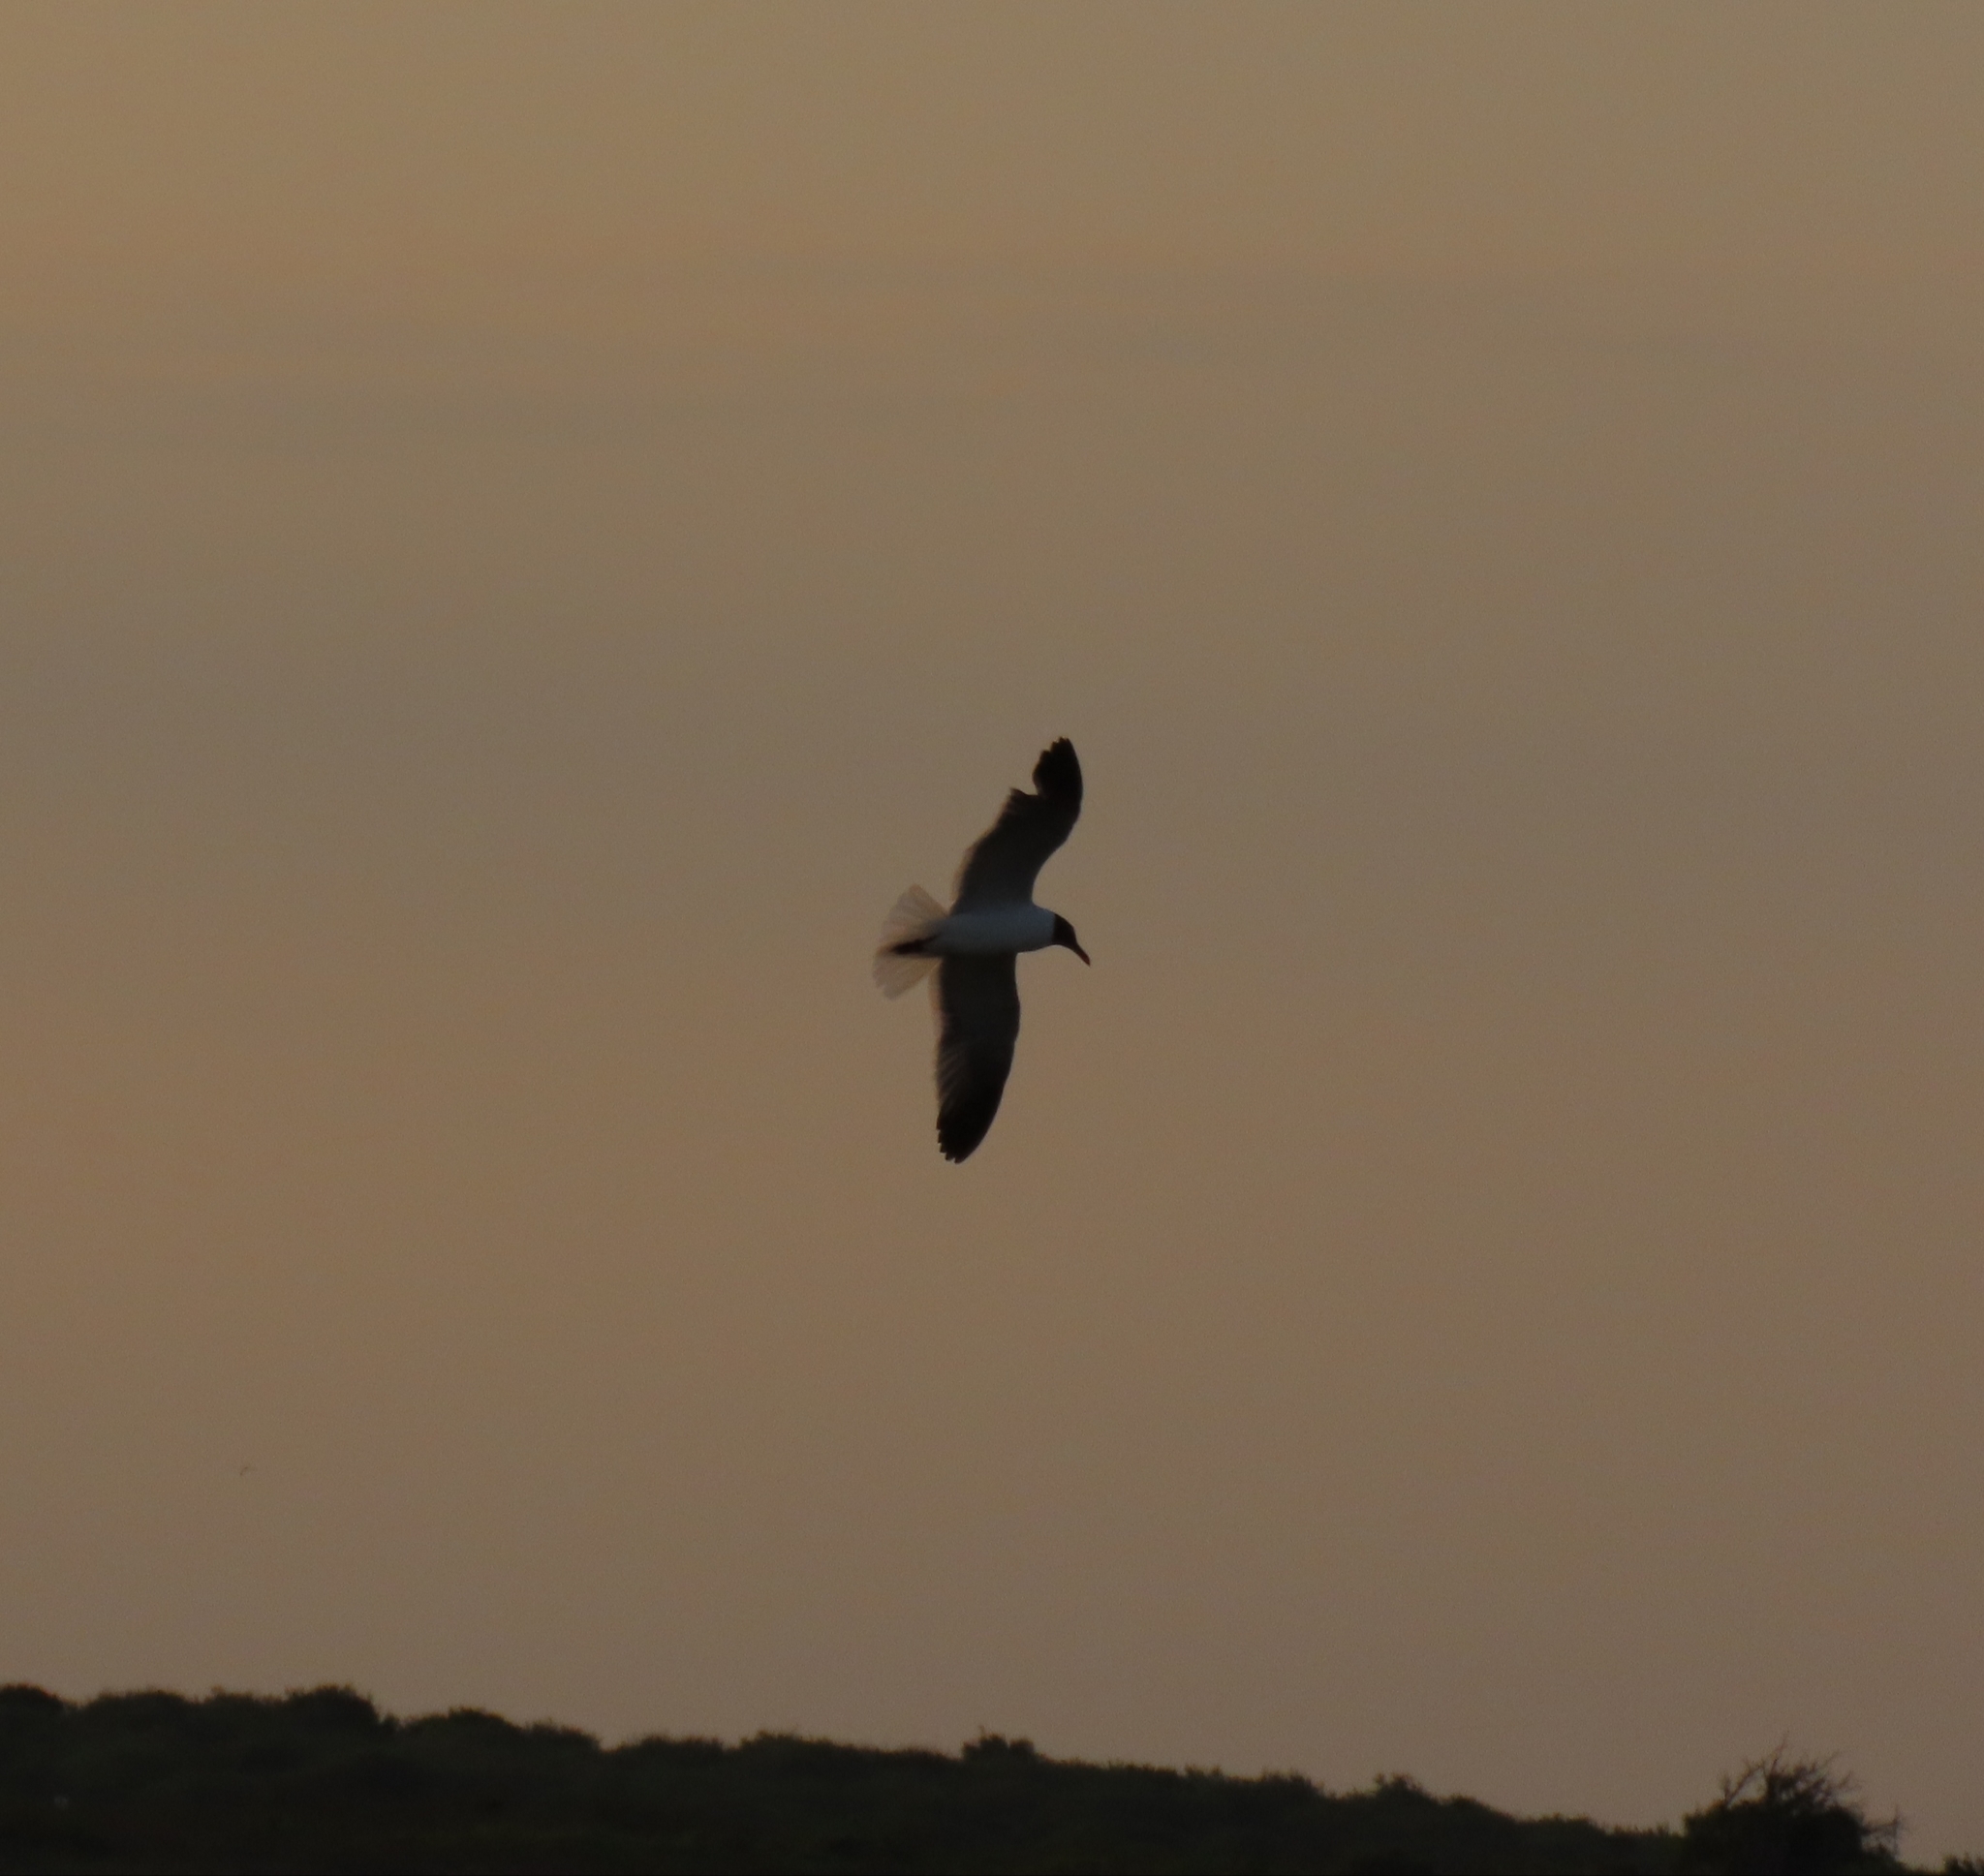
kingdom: Animalia
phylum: Chordata
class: Aves
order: Charadriiformes
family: Laridae
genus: Leucophaeus
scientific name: Leucophaeus atricilla
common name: Laughing gull
